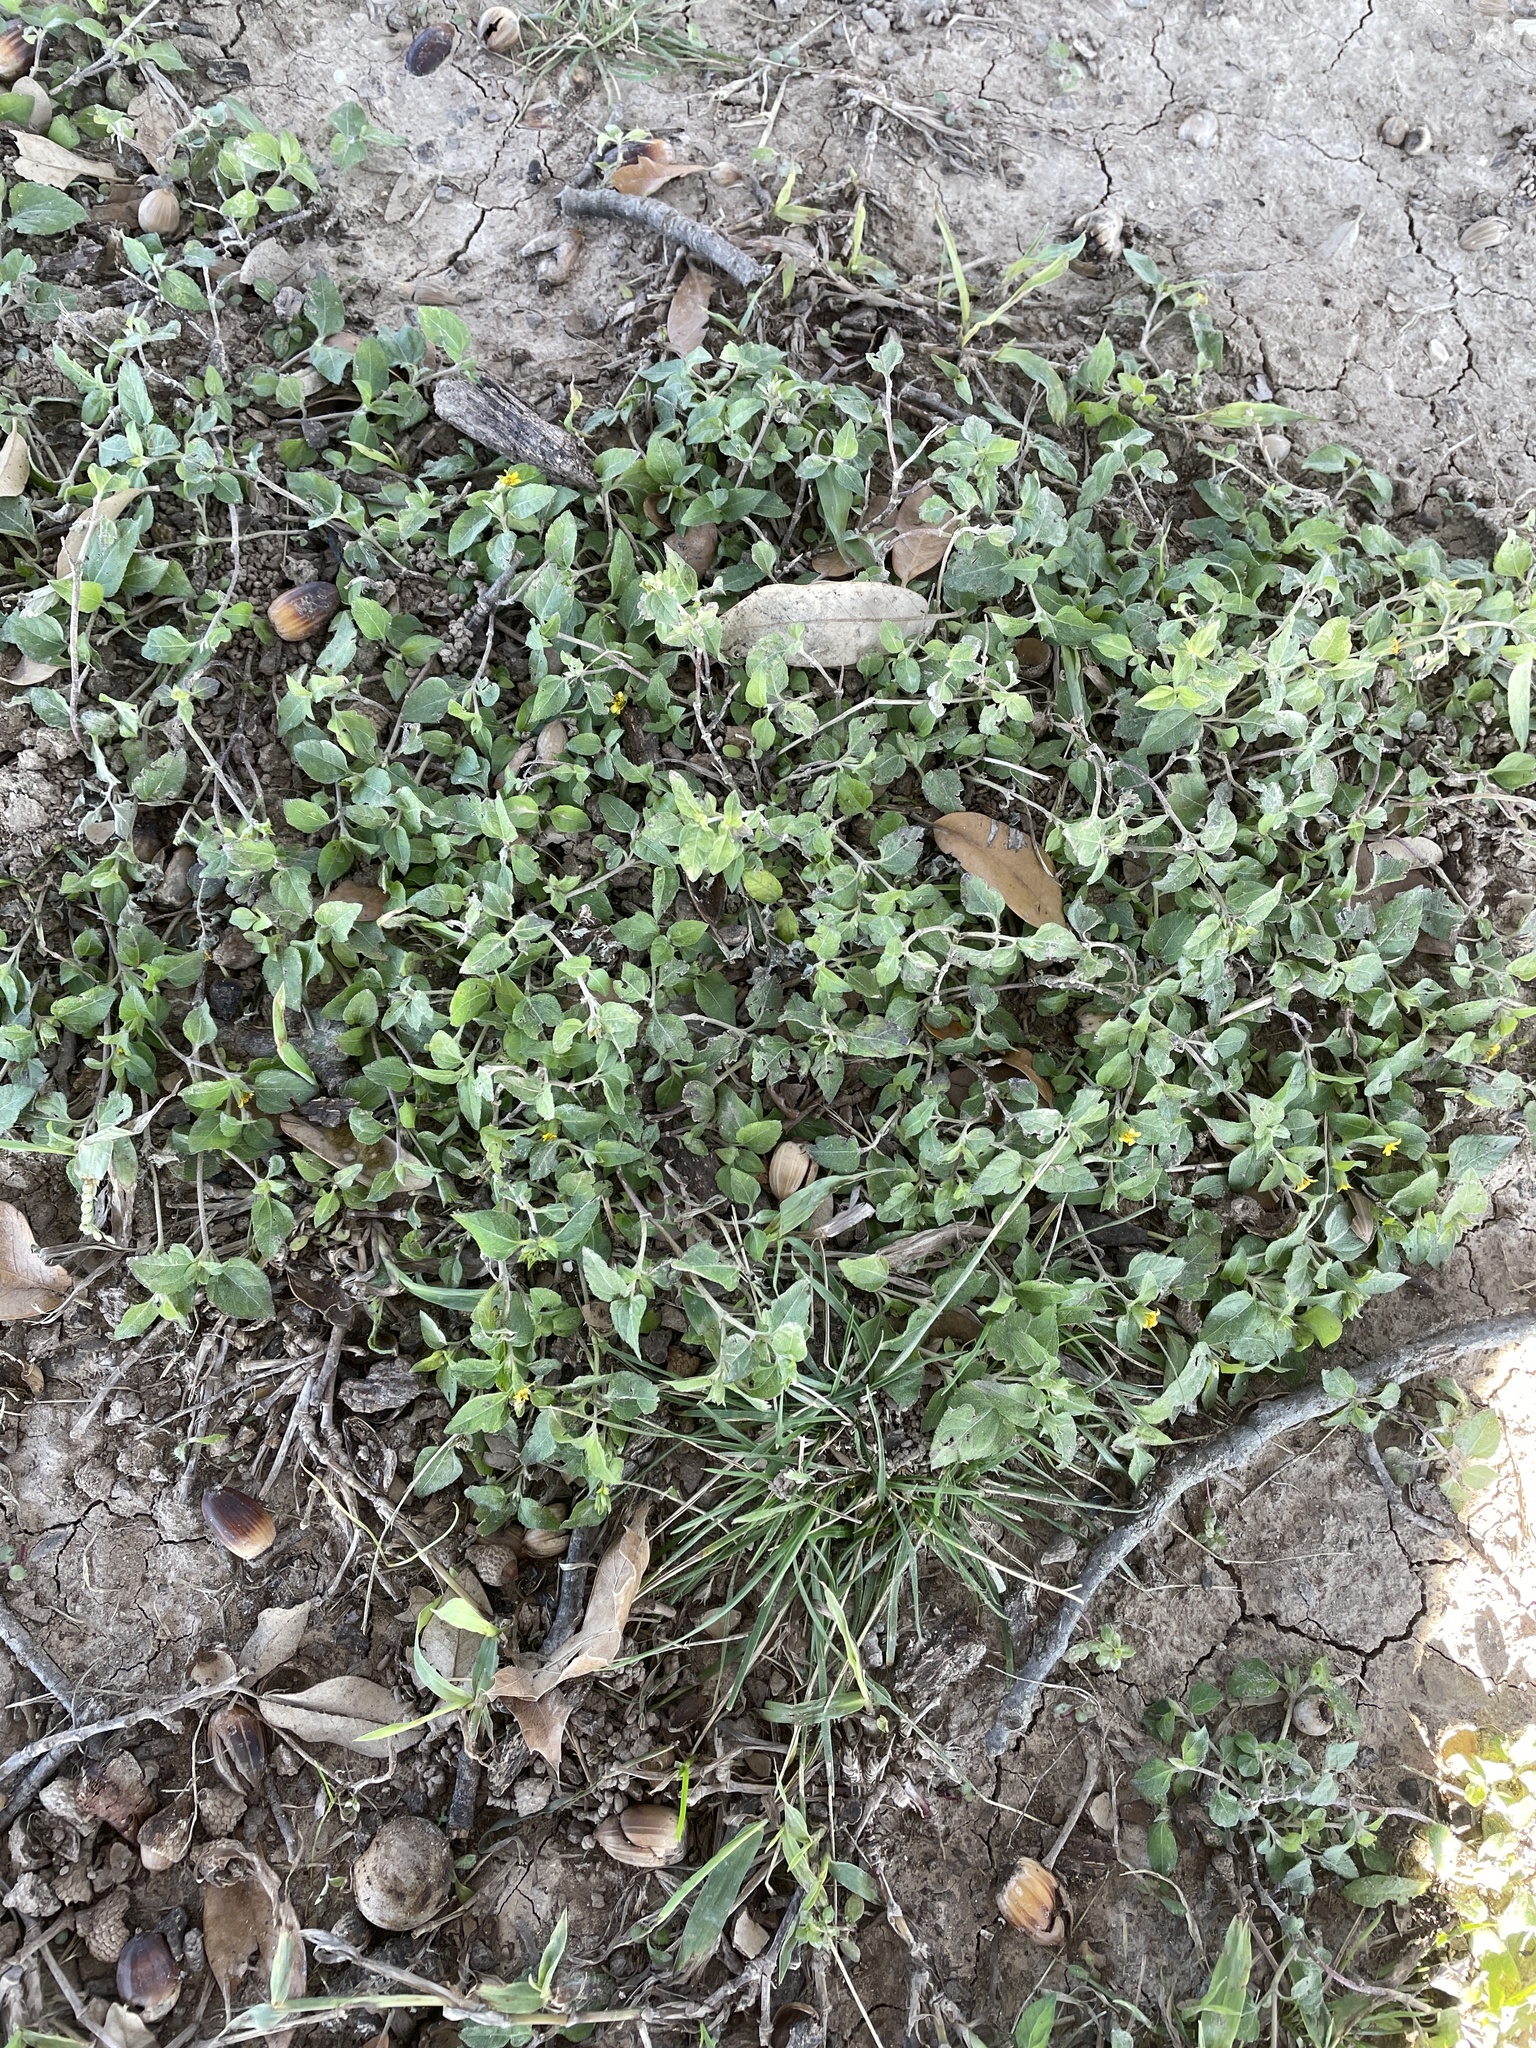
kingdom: Plantae
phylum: Tracheophyta
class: Magnoliopsida
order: Asterales
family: Asteraceae
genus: Calyptocarpus
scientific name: Calyptocarpus vialis
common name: Straggler daisy
